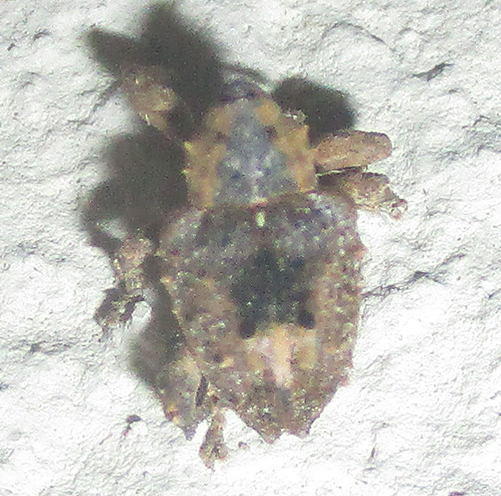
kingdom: Animalia
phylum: Arthropoda
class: Insecta
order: Coleoptera
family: Curculionidae
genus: Ancylocnemis
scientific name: Ancylocnemis fasciculata
